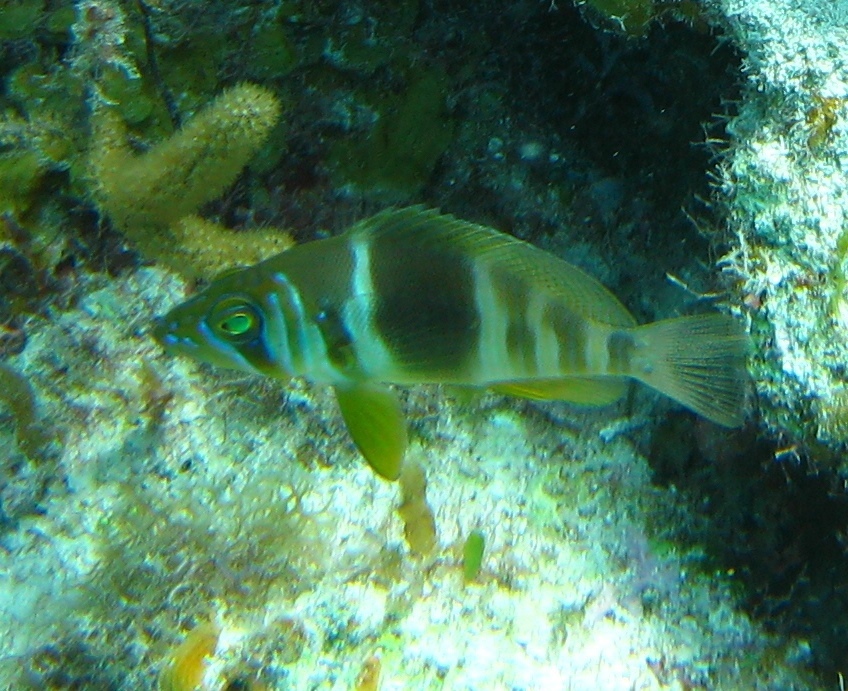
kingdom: Animalia
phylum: Chordata
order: Perciformes
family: Serranidae
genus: Hypoplectrus
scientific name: Hypoplectrus puella
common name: Barred hamlet
